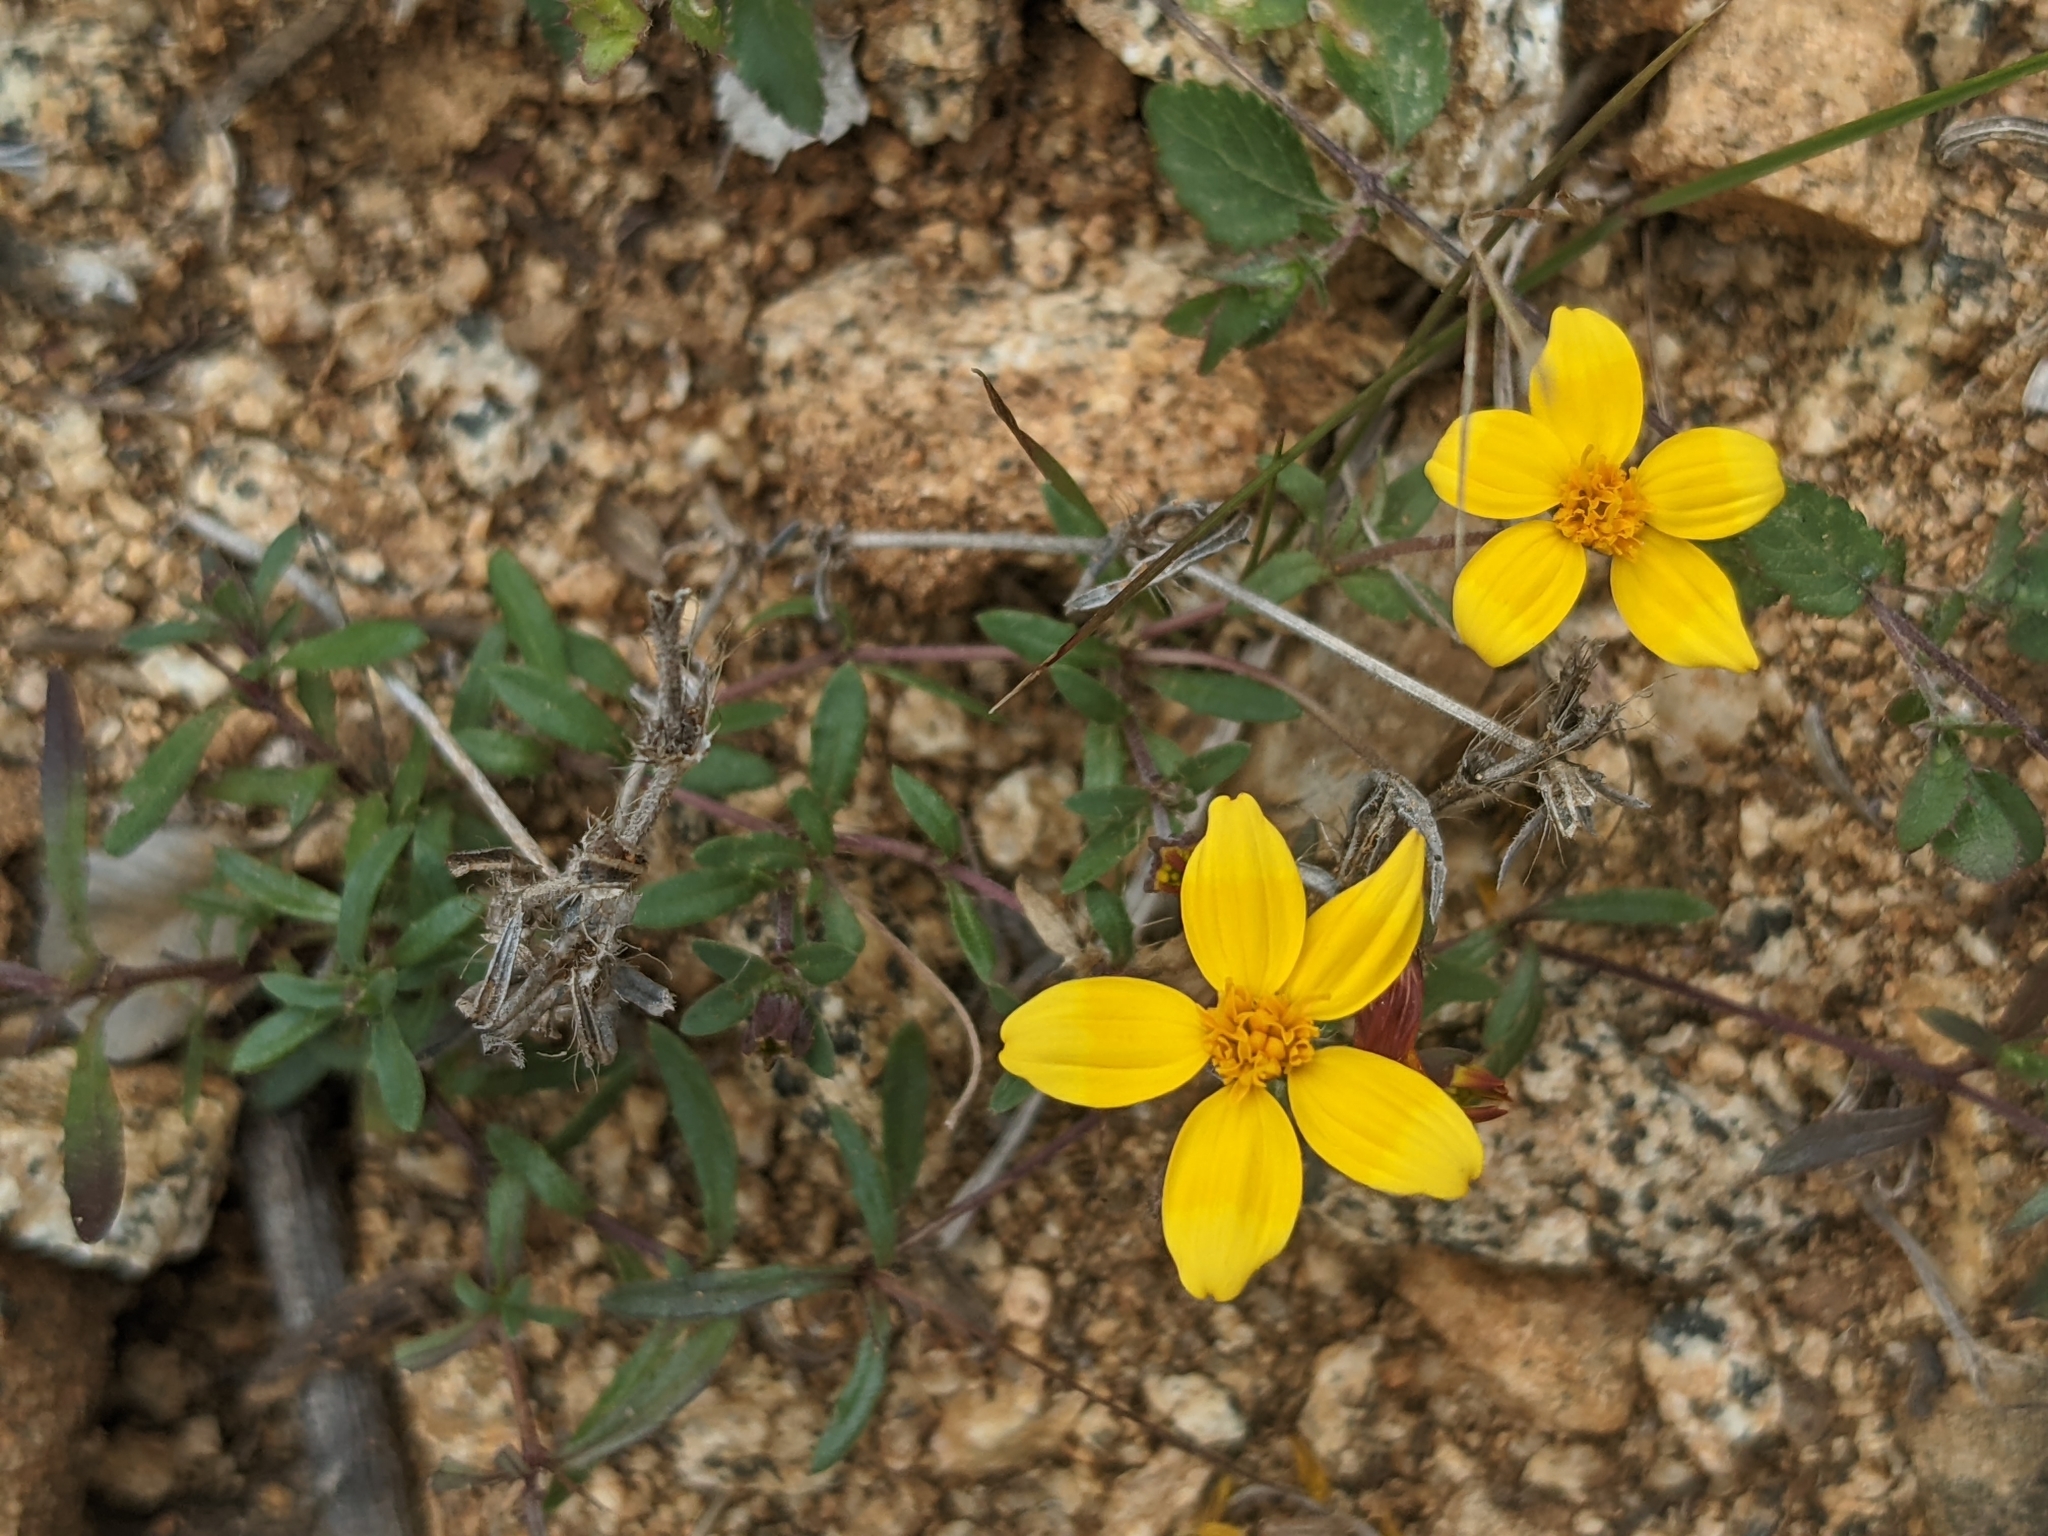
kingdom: Plantae
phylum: Tracheophyta
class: Magnoliopsida
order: Asterales
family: Asteraceae
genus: Pectis
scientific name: Pectis multiseta
